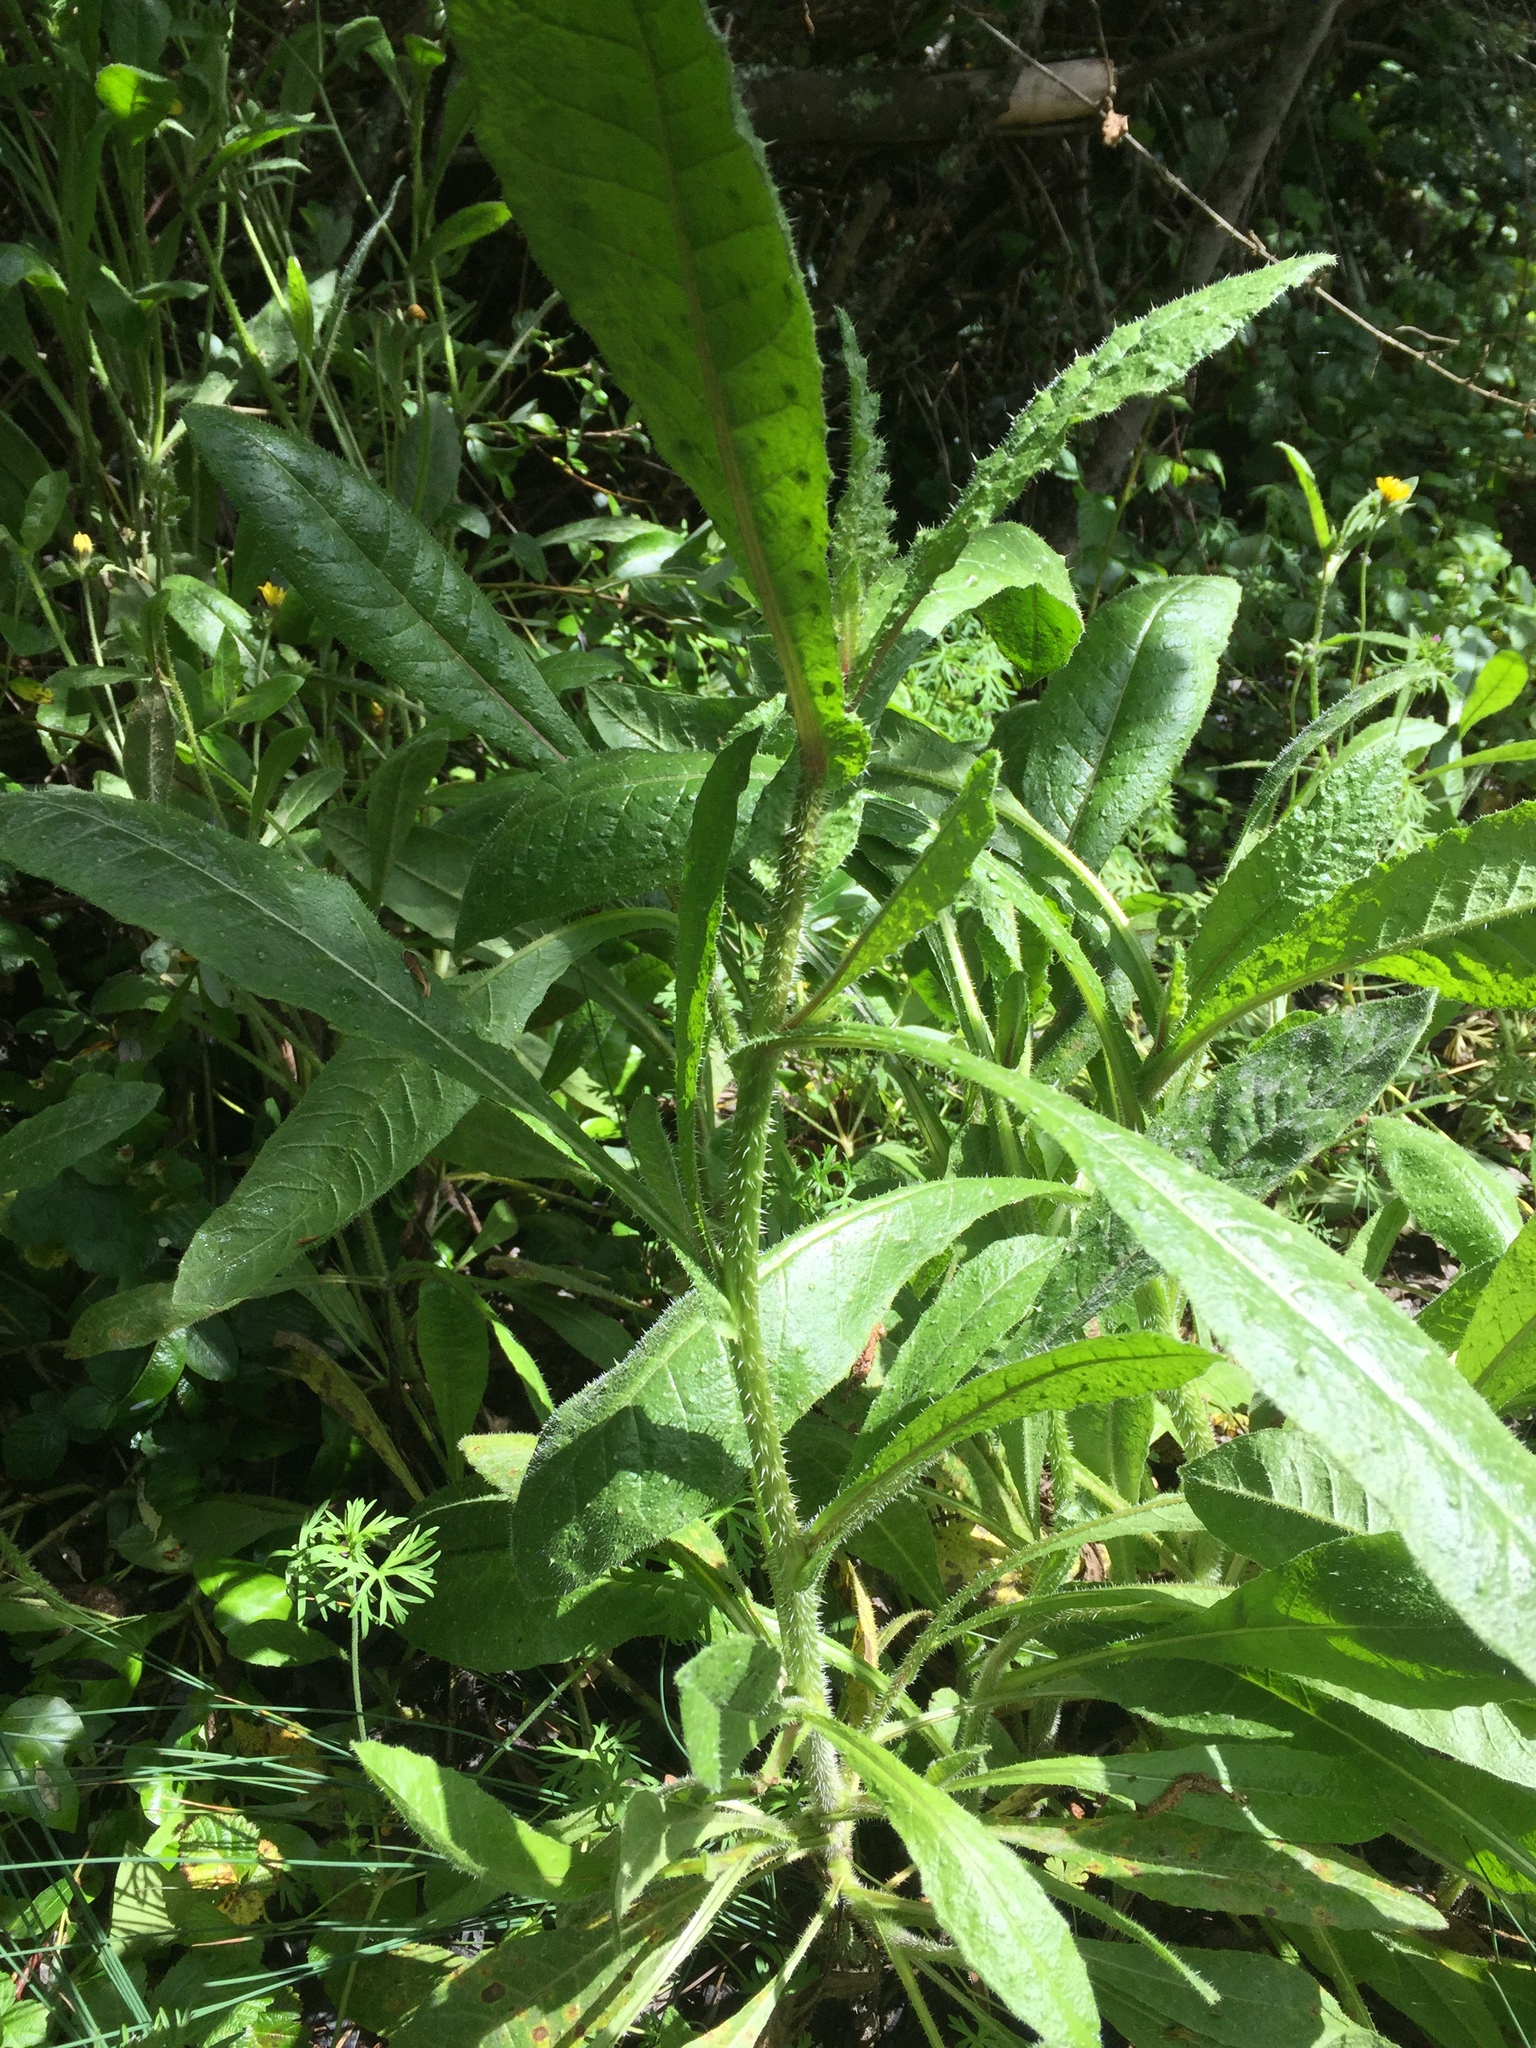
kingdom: Plantae
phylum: Tracheophyta
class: Magnoliopsida
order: Asterales
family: Asteraceae
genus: Helminthotheca
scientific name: Helminthotheca echioides
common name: Ox-tongue
